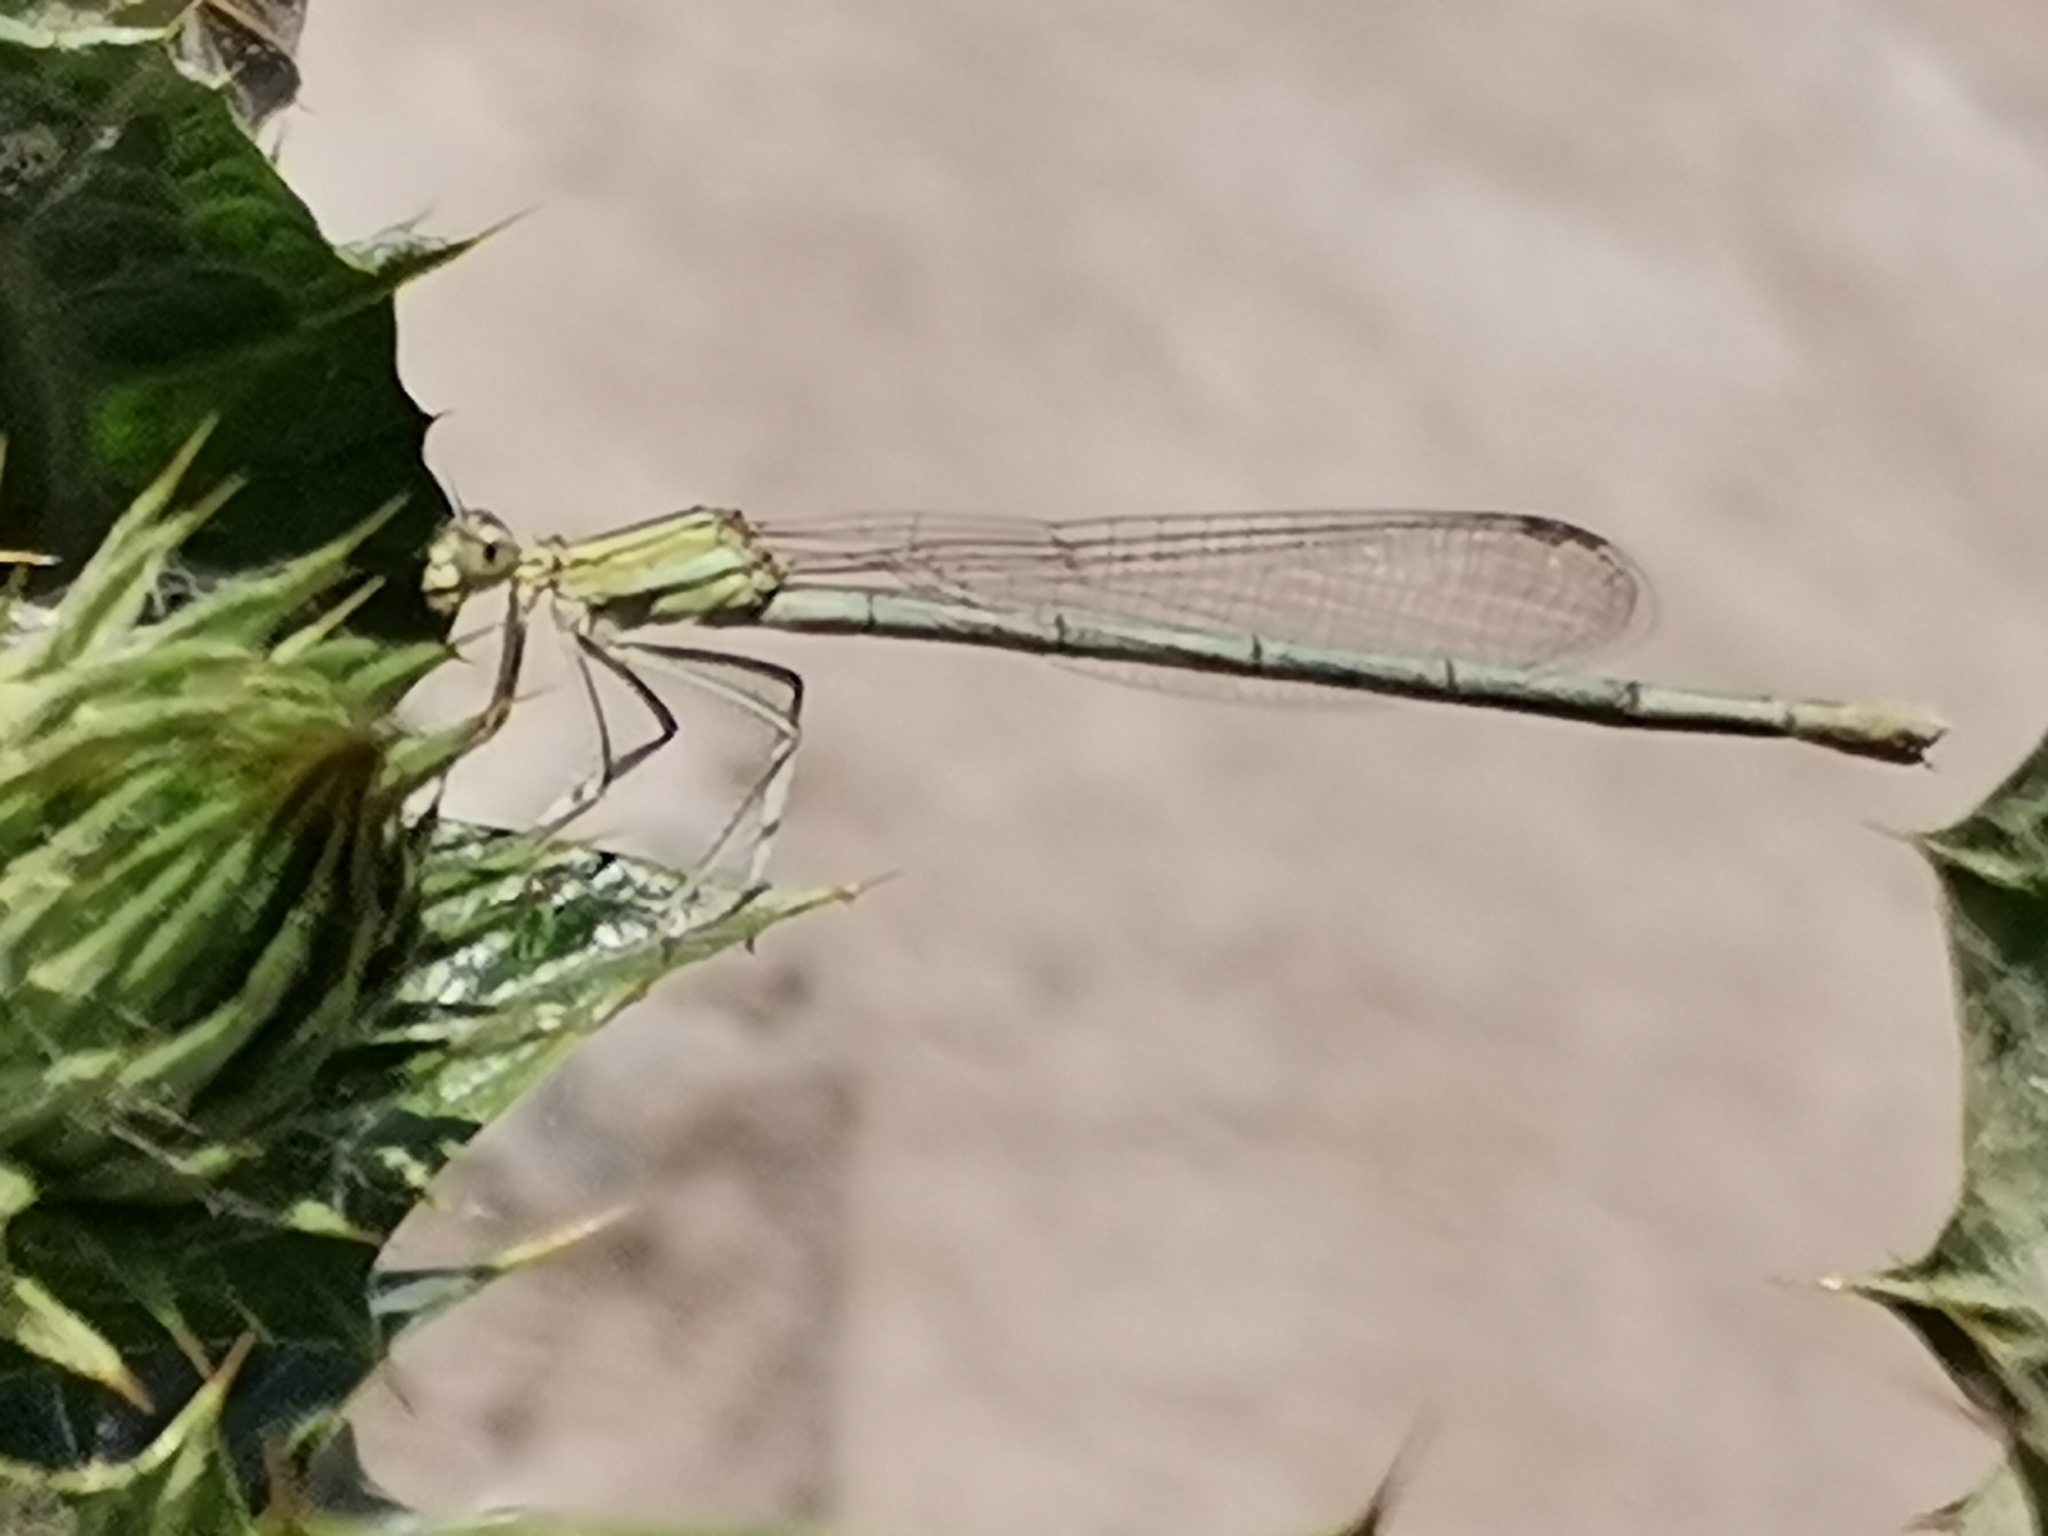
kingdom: Animalia
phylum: Arthropoda
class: Insecta
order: Odonata
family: Platycnemididae
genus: Platycnemis
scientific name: Platycnemis pennipes
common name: White-legged damselfly
